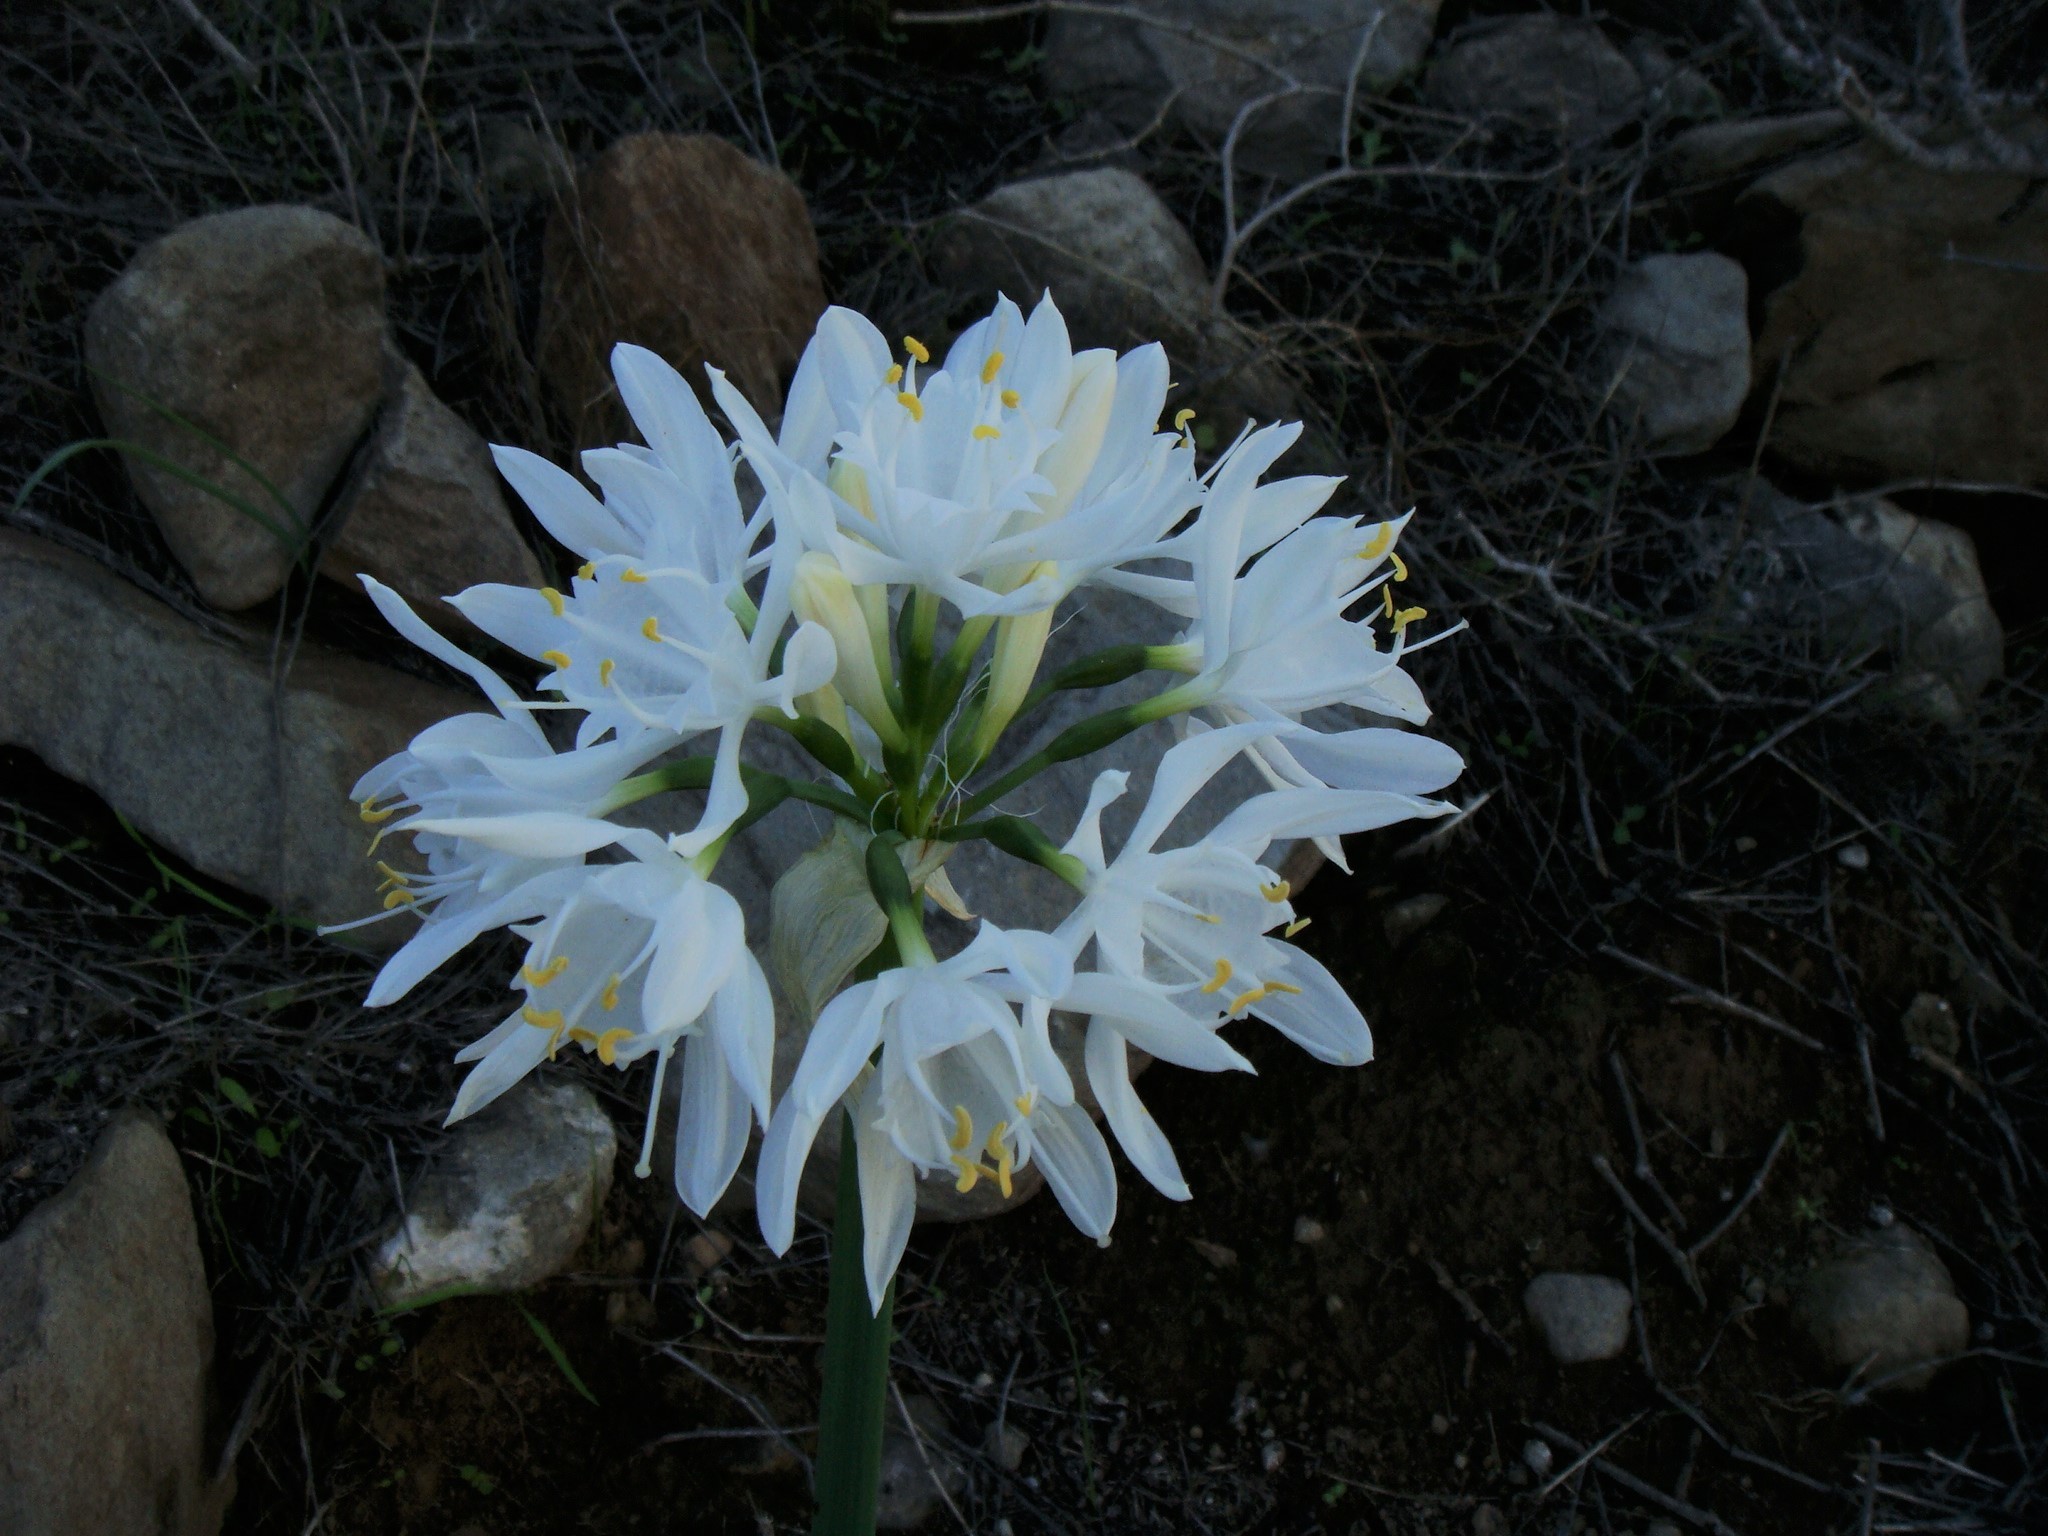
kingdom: Plantae
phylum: Tracheophyta
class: Liliopsida
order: Asparagales
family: Amaryllidaceae
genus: Pancratium
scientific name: Pancratium canariense
